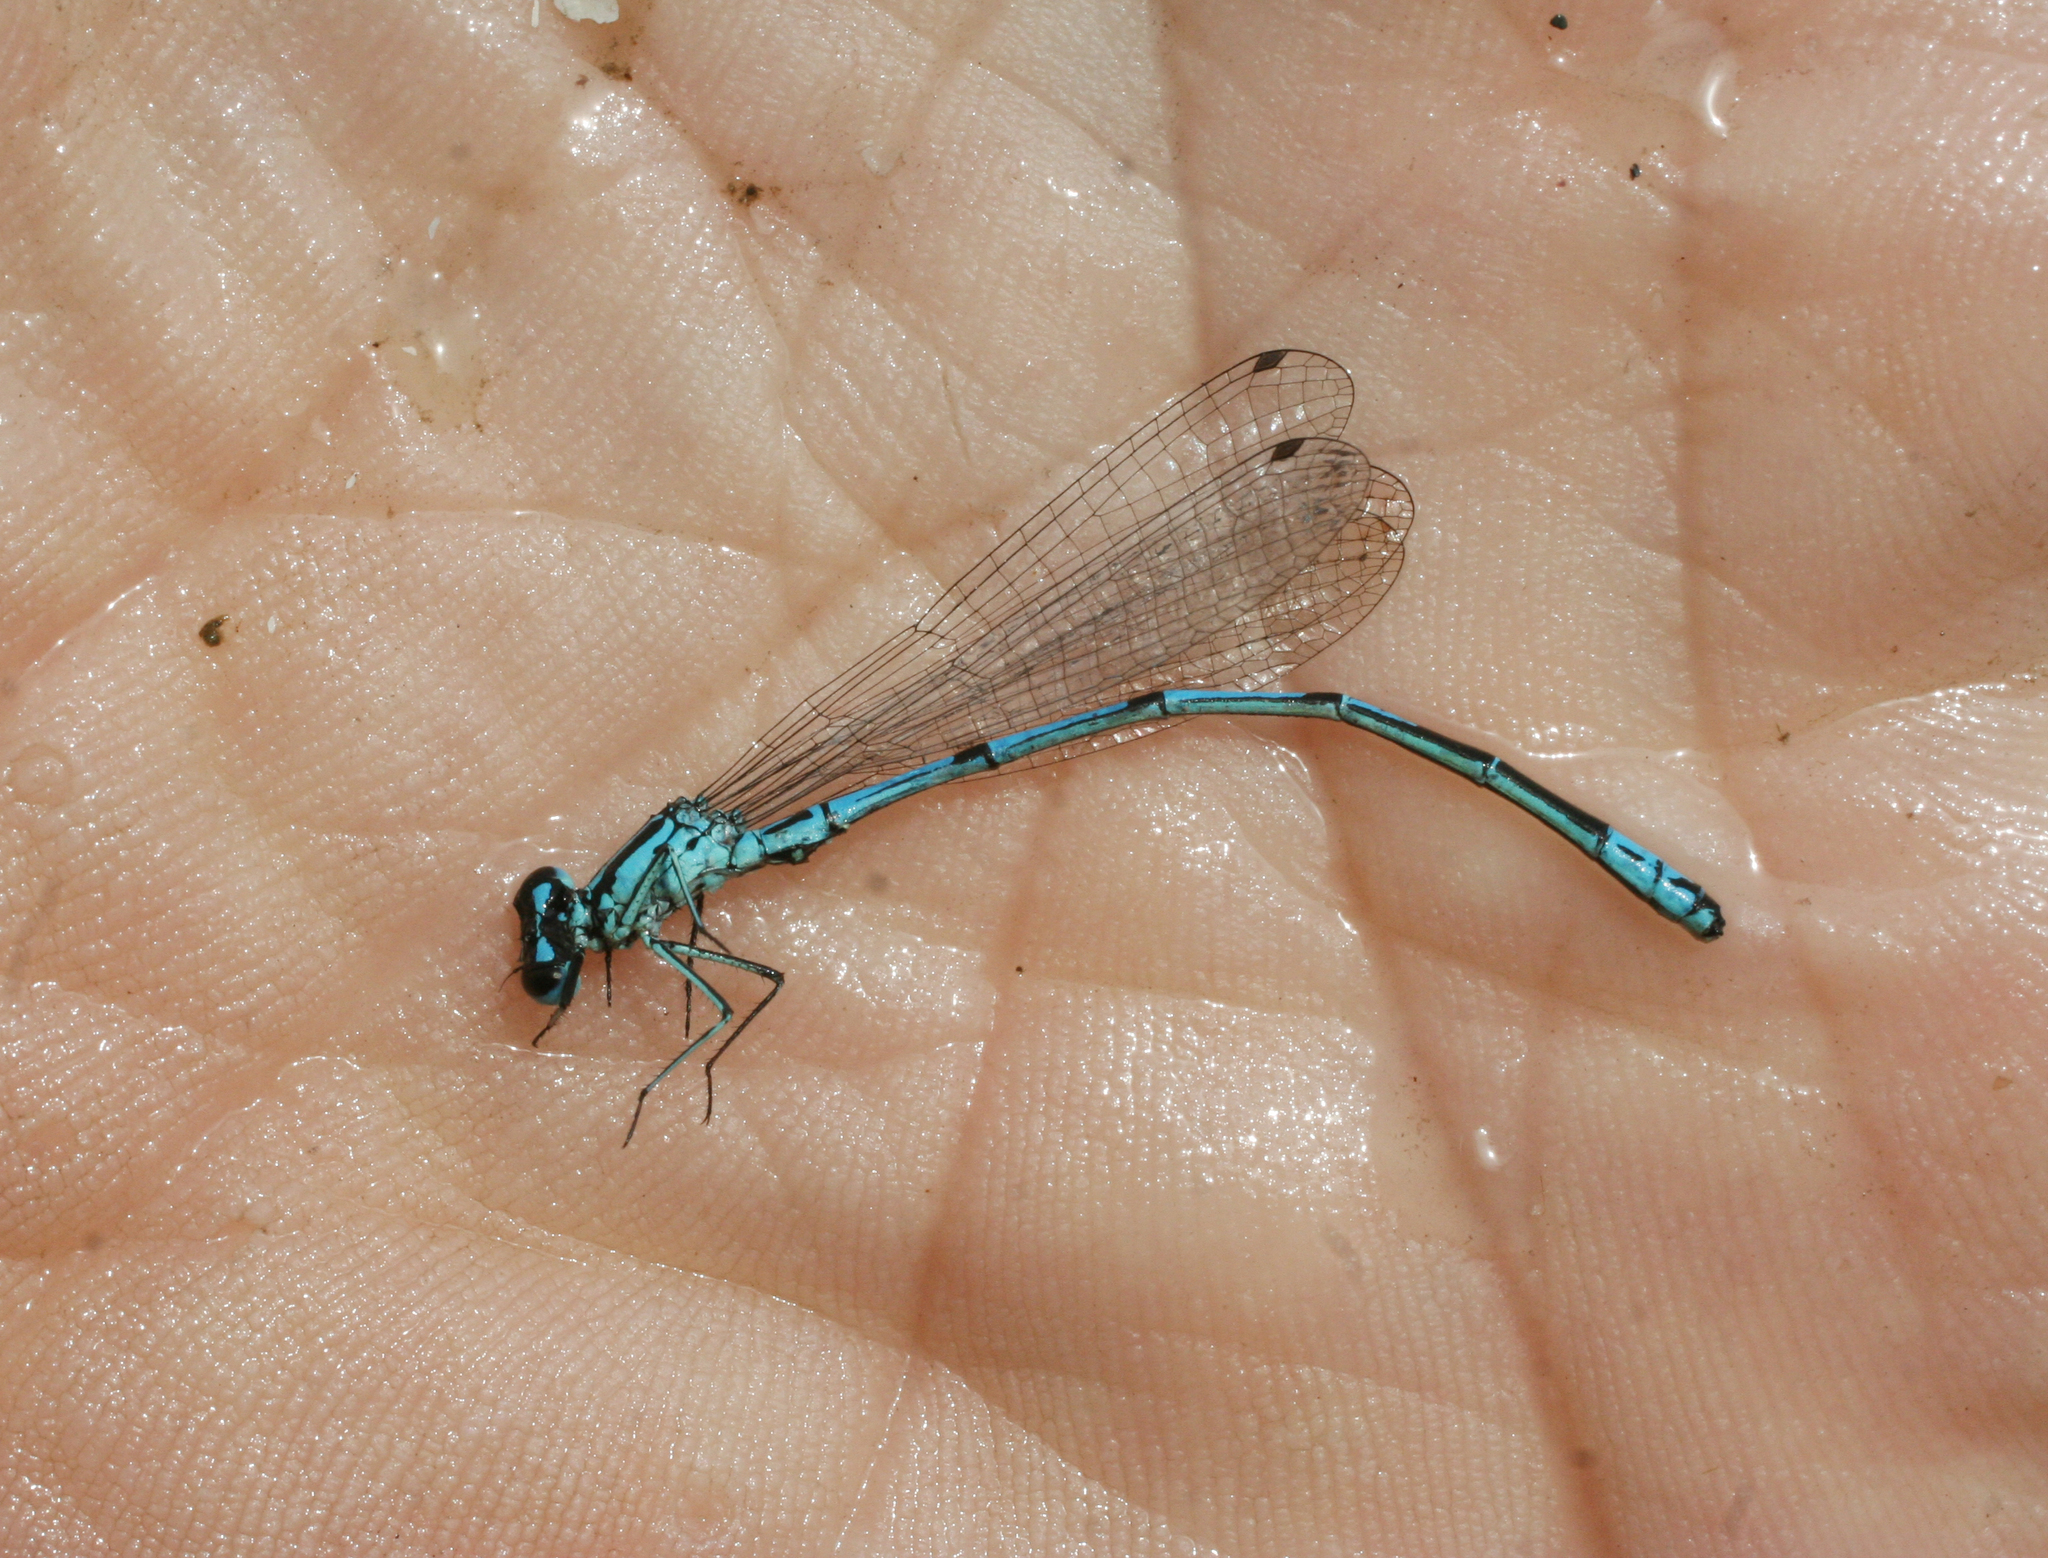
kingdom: Animalia
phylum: Arthropoda
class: Insecta
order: Odonata
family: Coenagrionidae
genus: Coenagrion
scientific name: Coenagrion puella
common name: Azure damselfly
